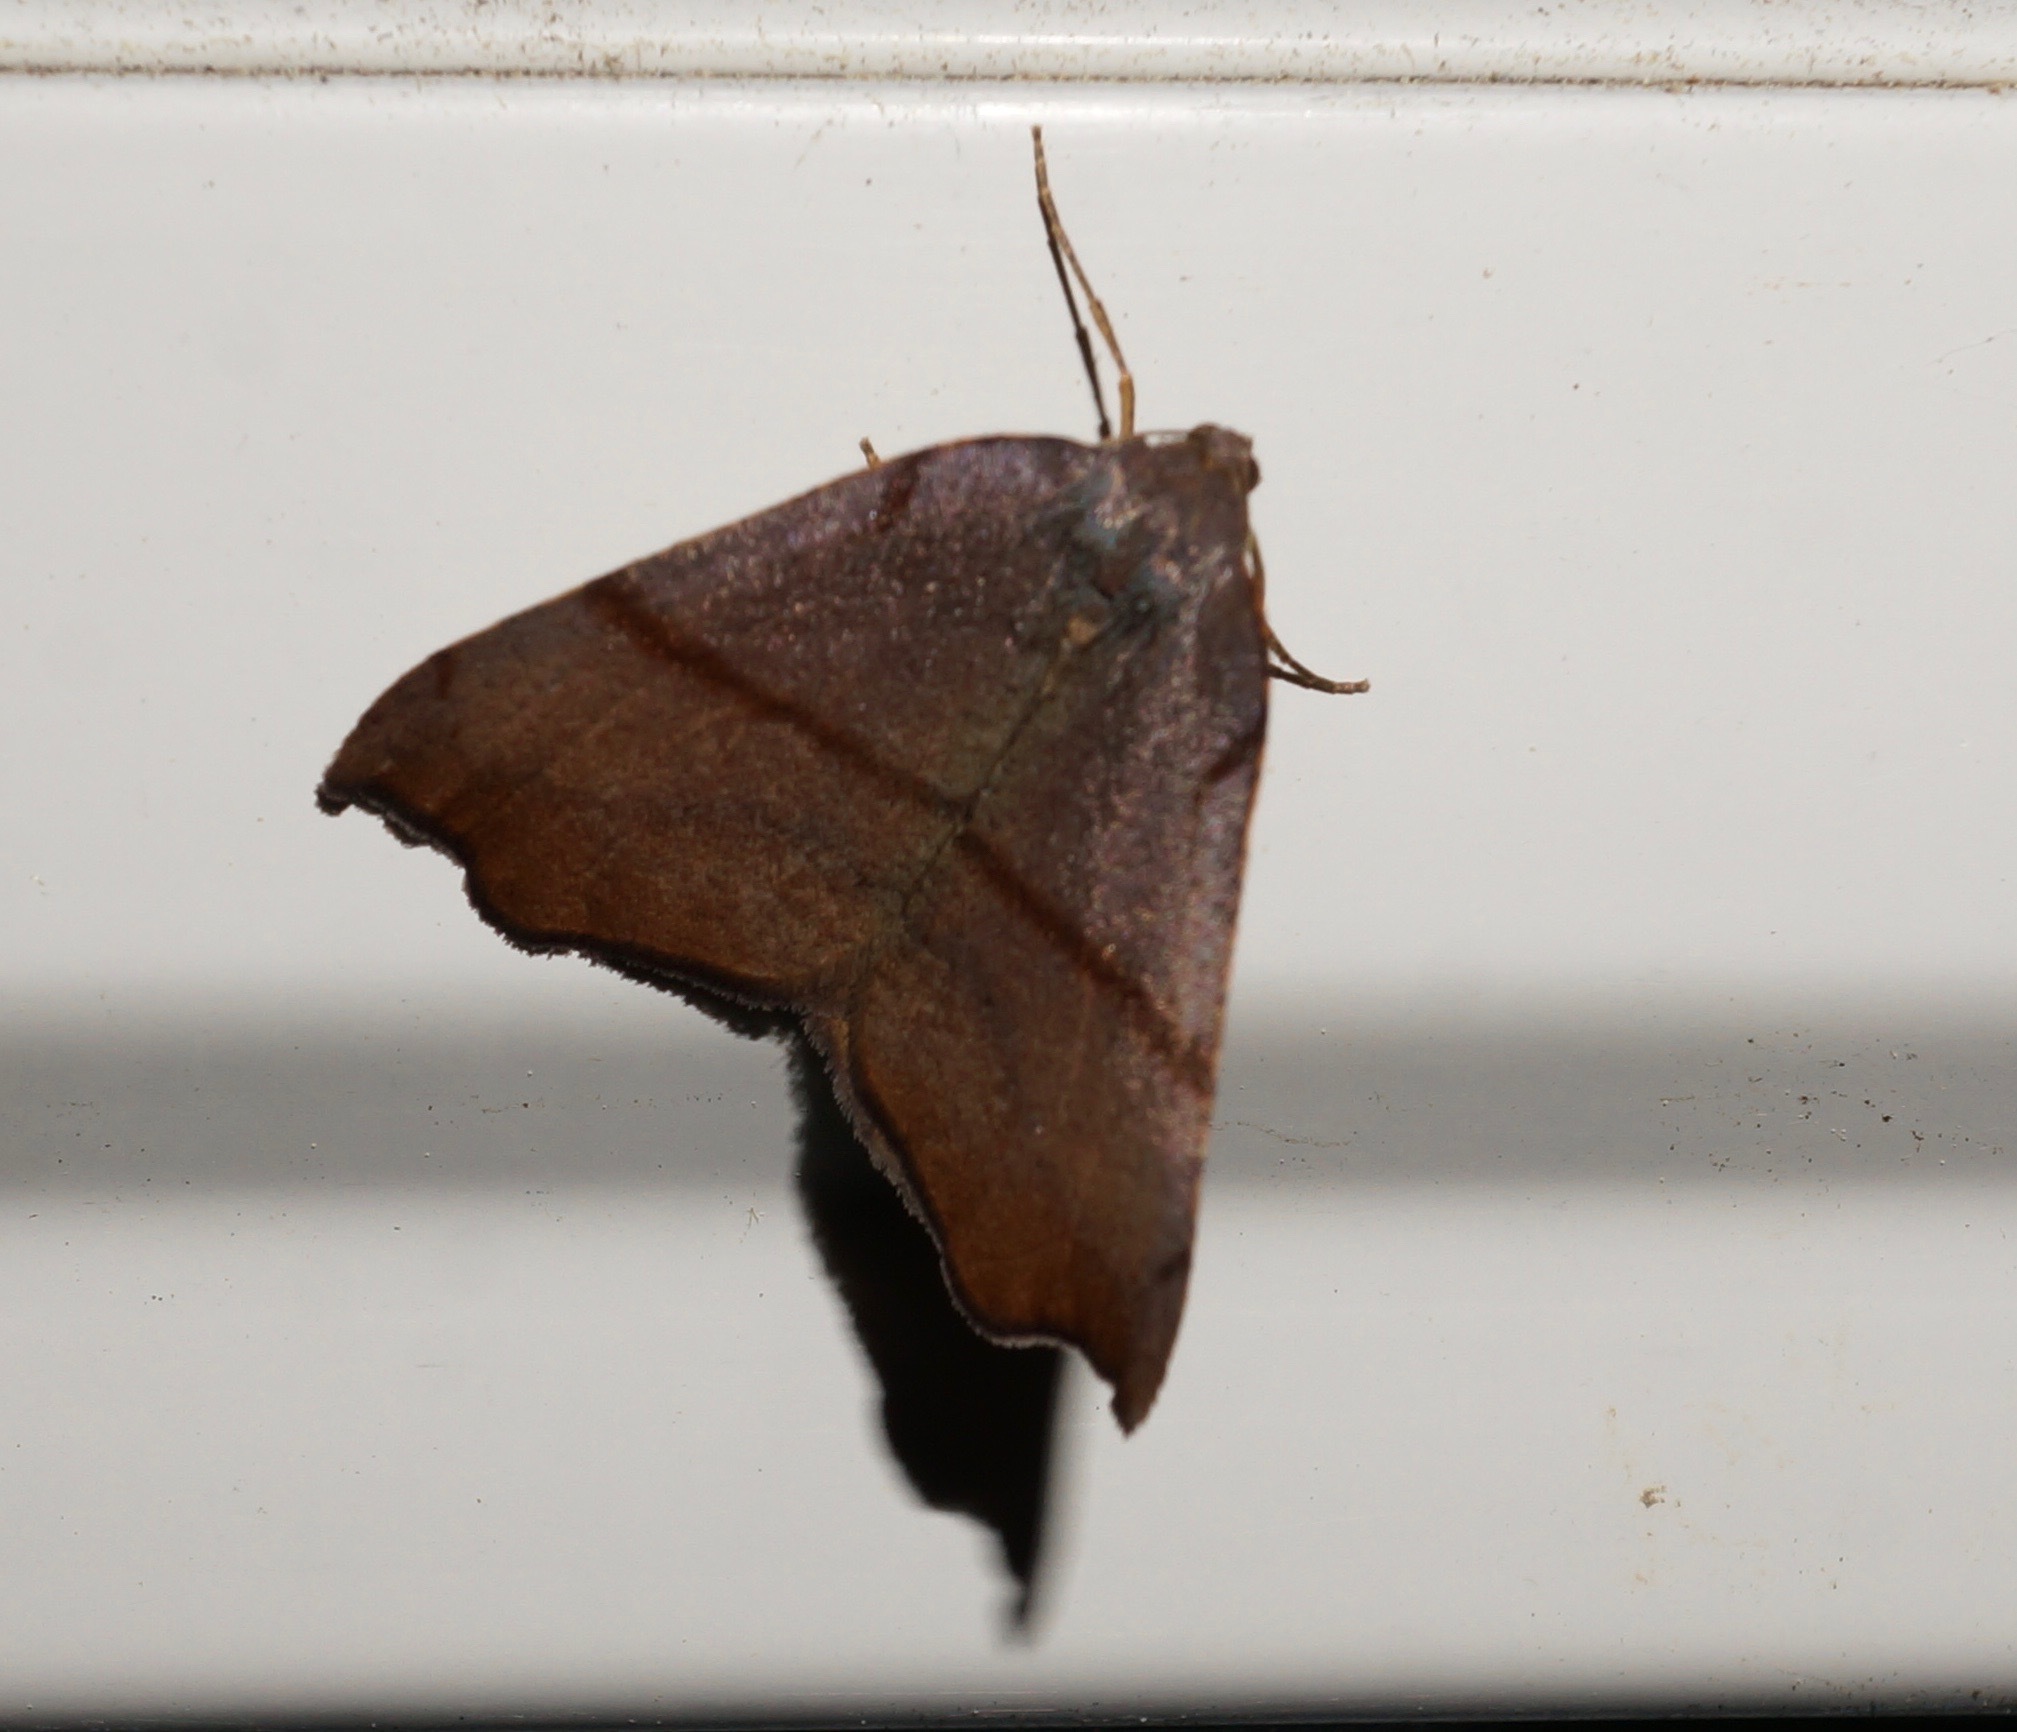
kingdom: Animalia
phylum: Arthropoda
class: Insecta
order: Lepidoptera
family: Geometridae
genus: Sestra
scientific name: Sestra flexata
